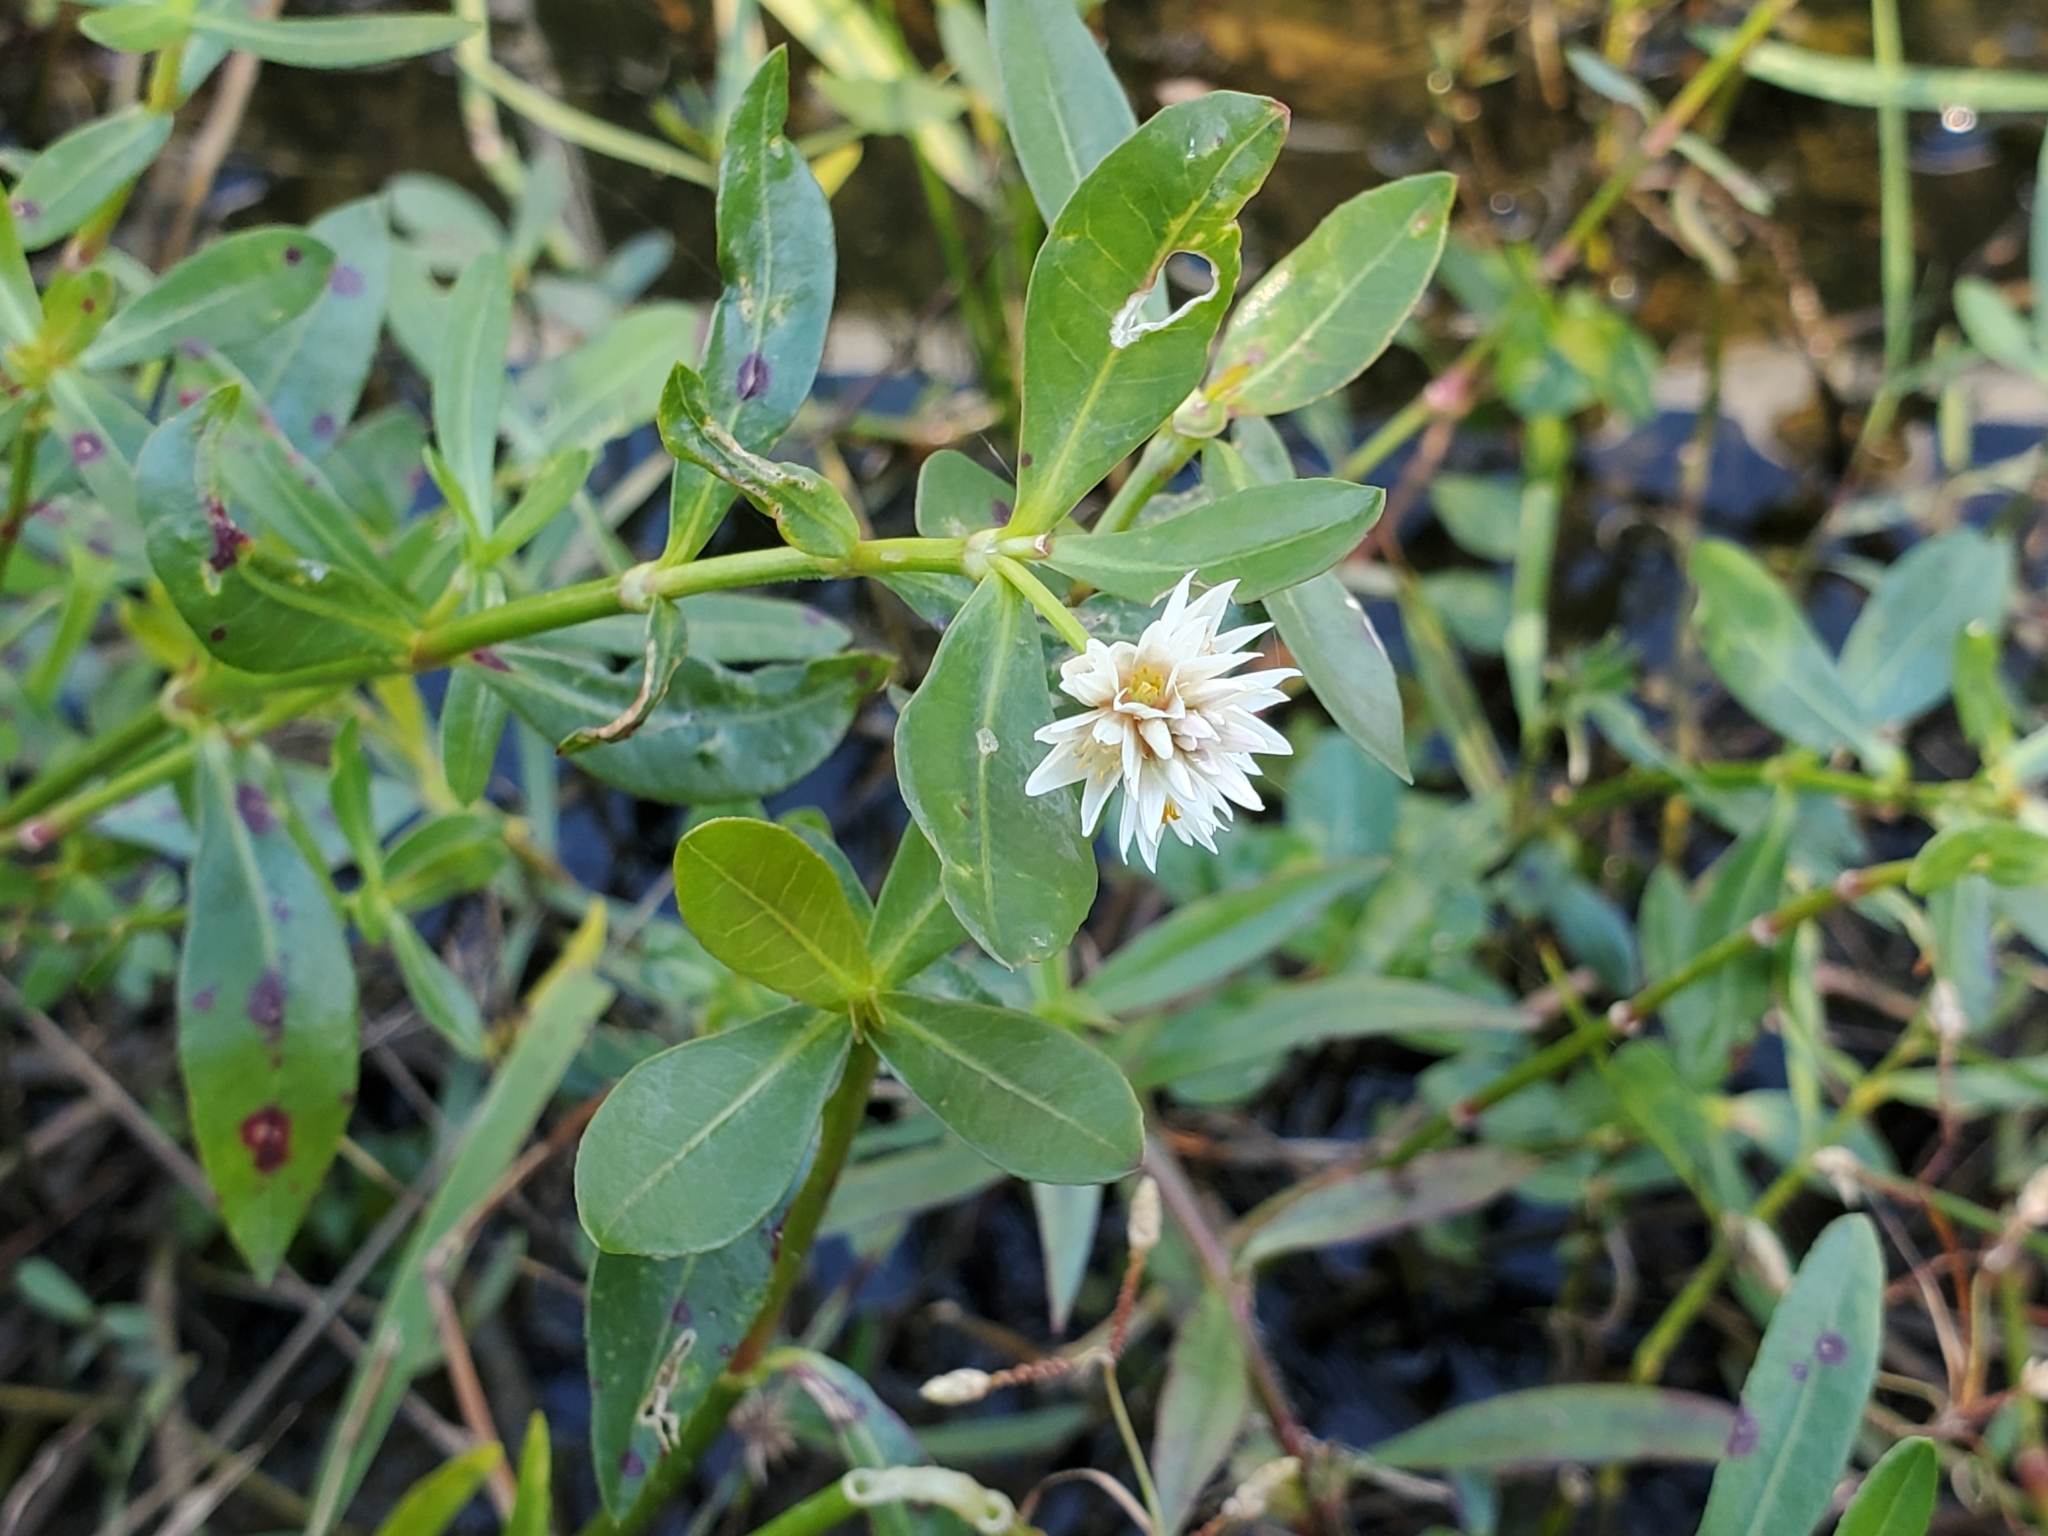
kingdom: Plantae
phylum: Tracheophyta
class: Magnoliopsida
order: Caryophyllales
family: Amaranthaceae
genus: Alternanthera
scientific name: Alternanthera philoxeroides
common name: Alligatorweed
